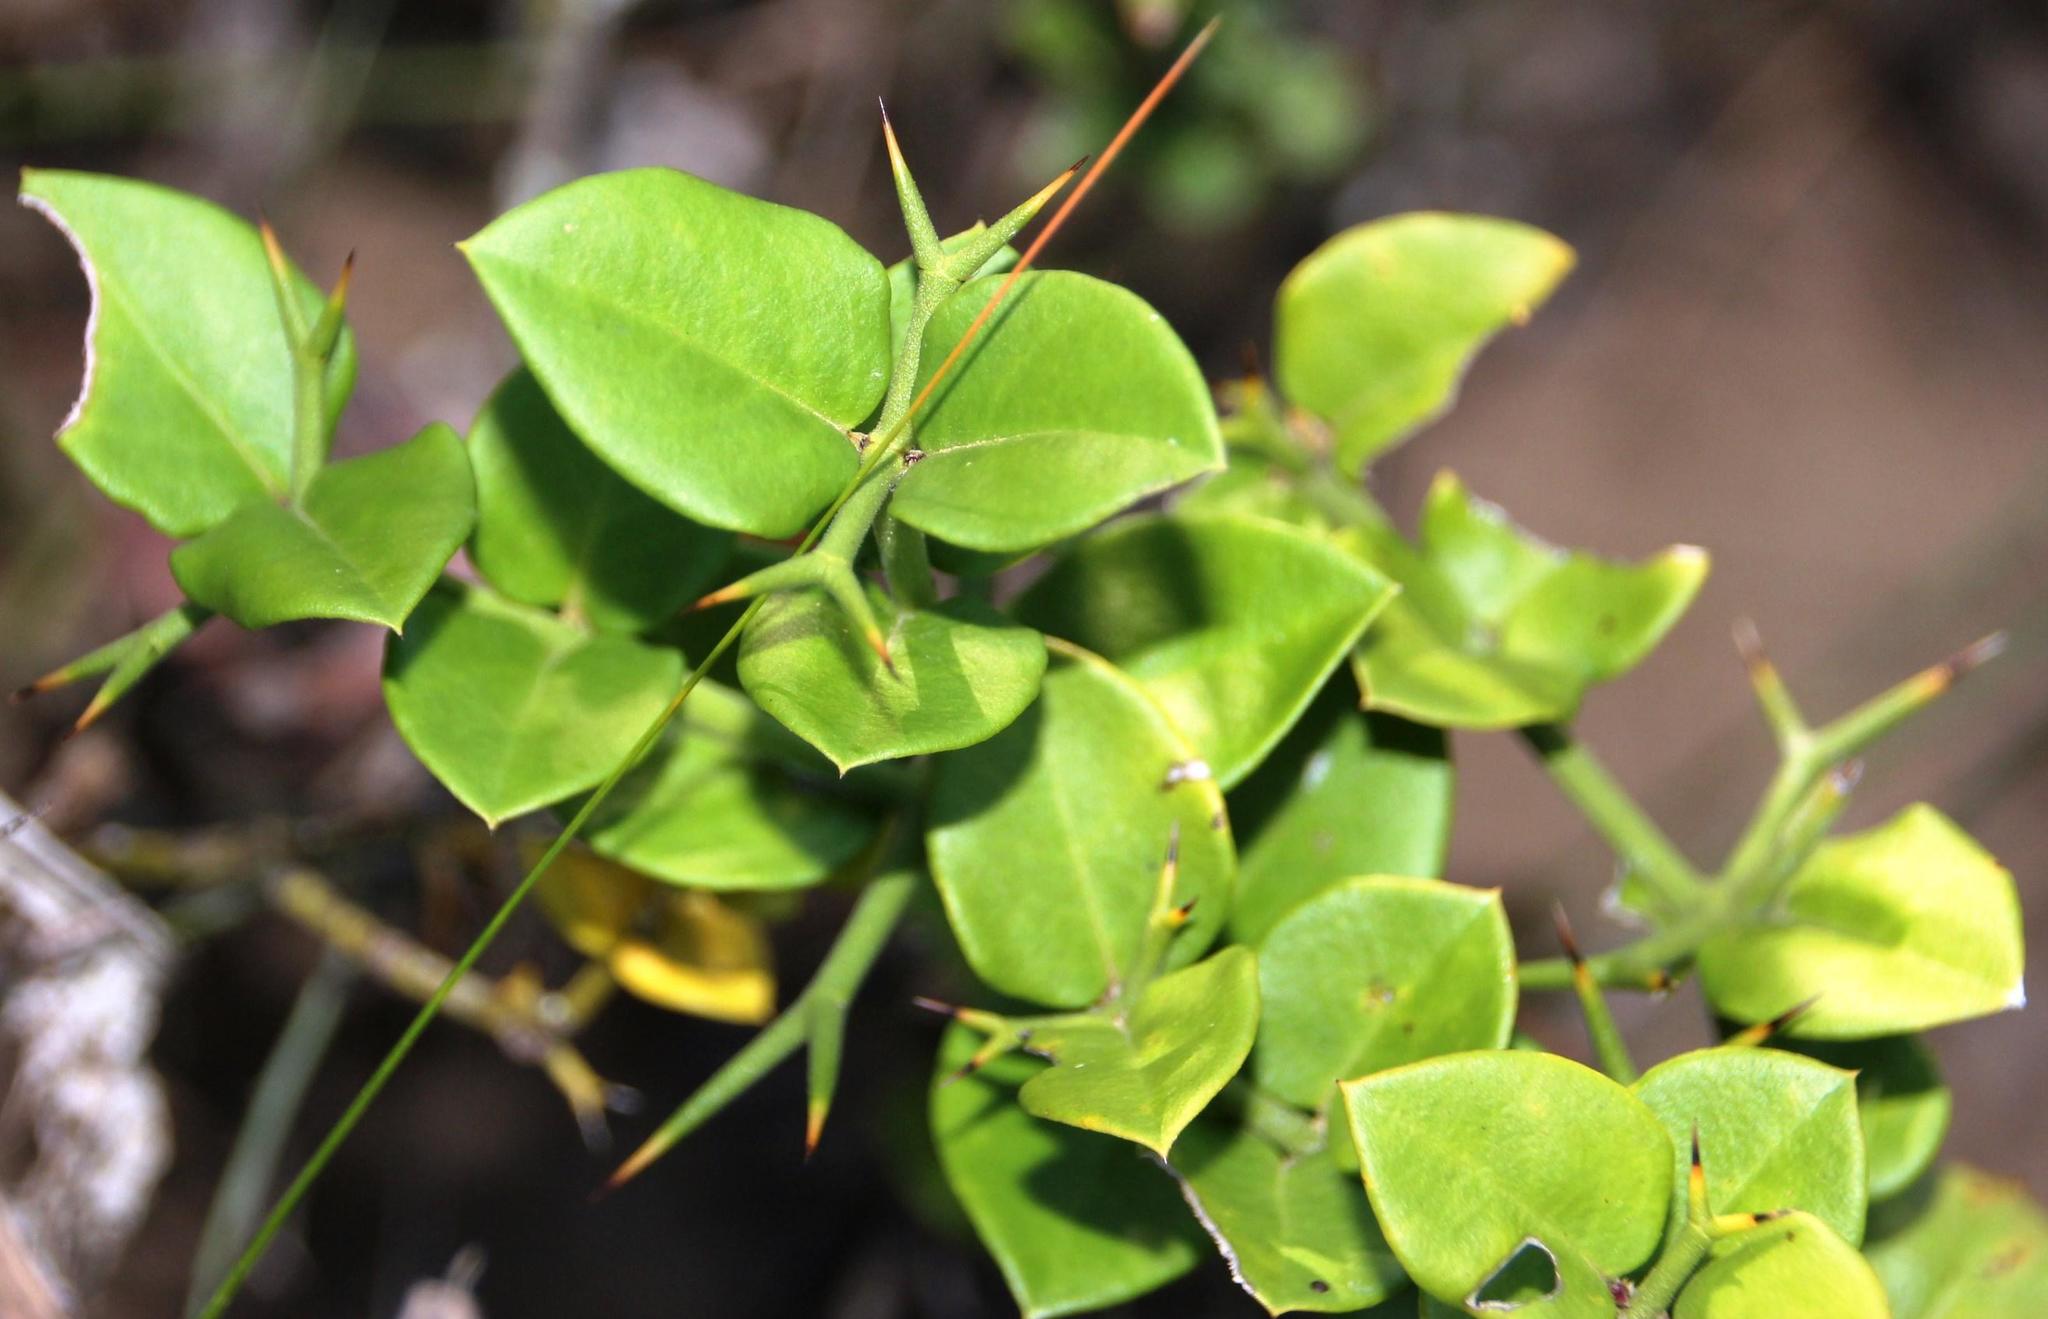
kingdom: Plantae
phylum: Tracheophyta
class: Magnoliopsida
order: Gentianales
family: Apocynaceae
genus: Carissa
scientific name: Carissa bispinosa
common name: Forest num-num
